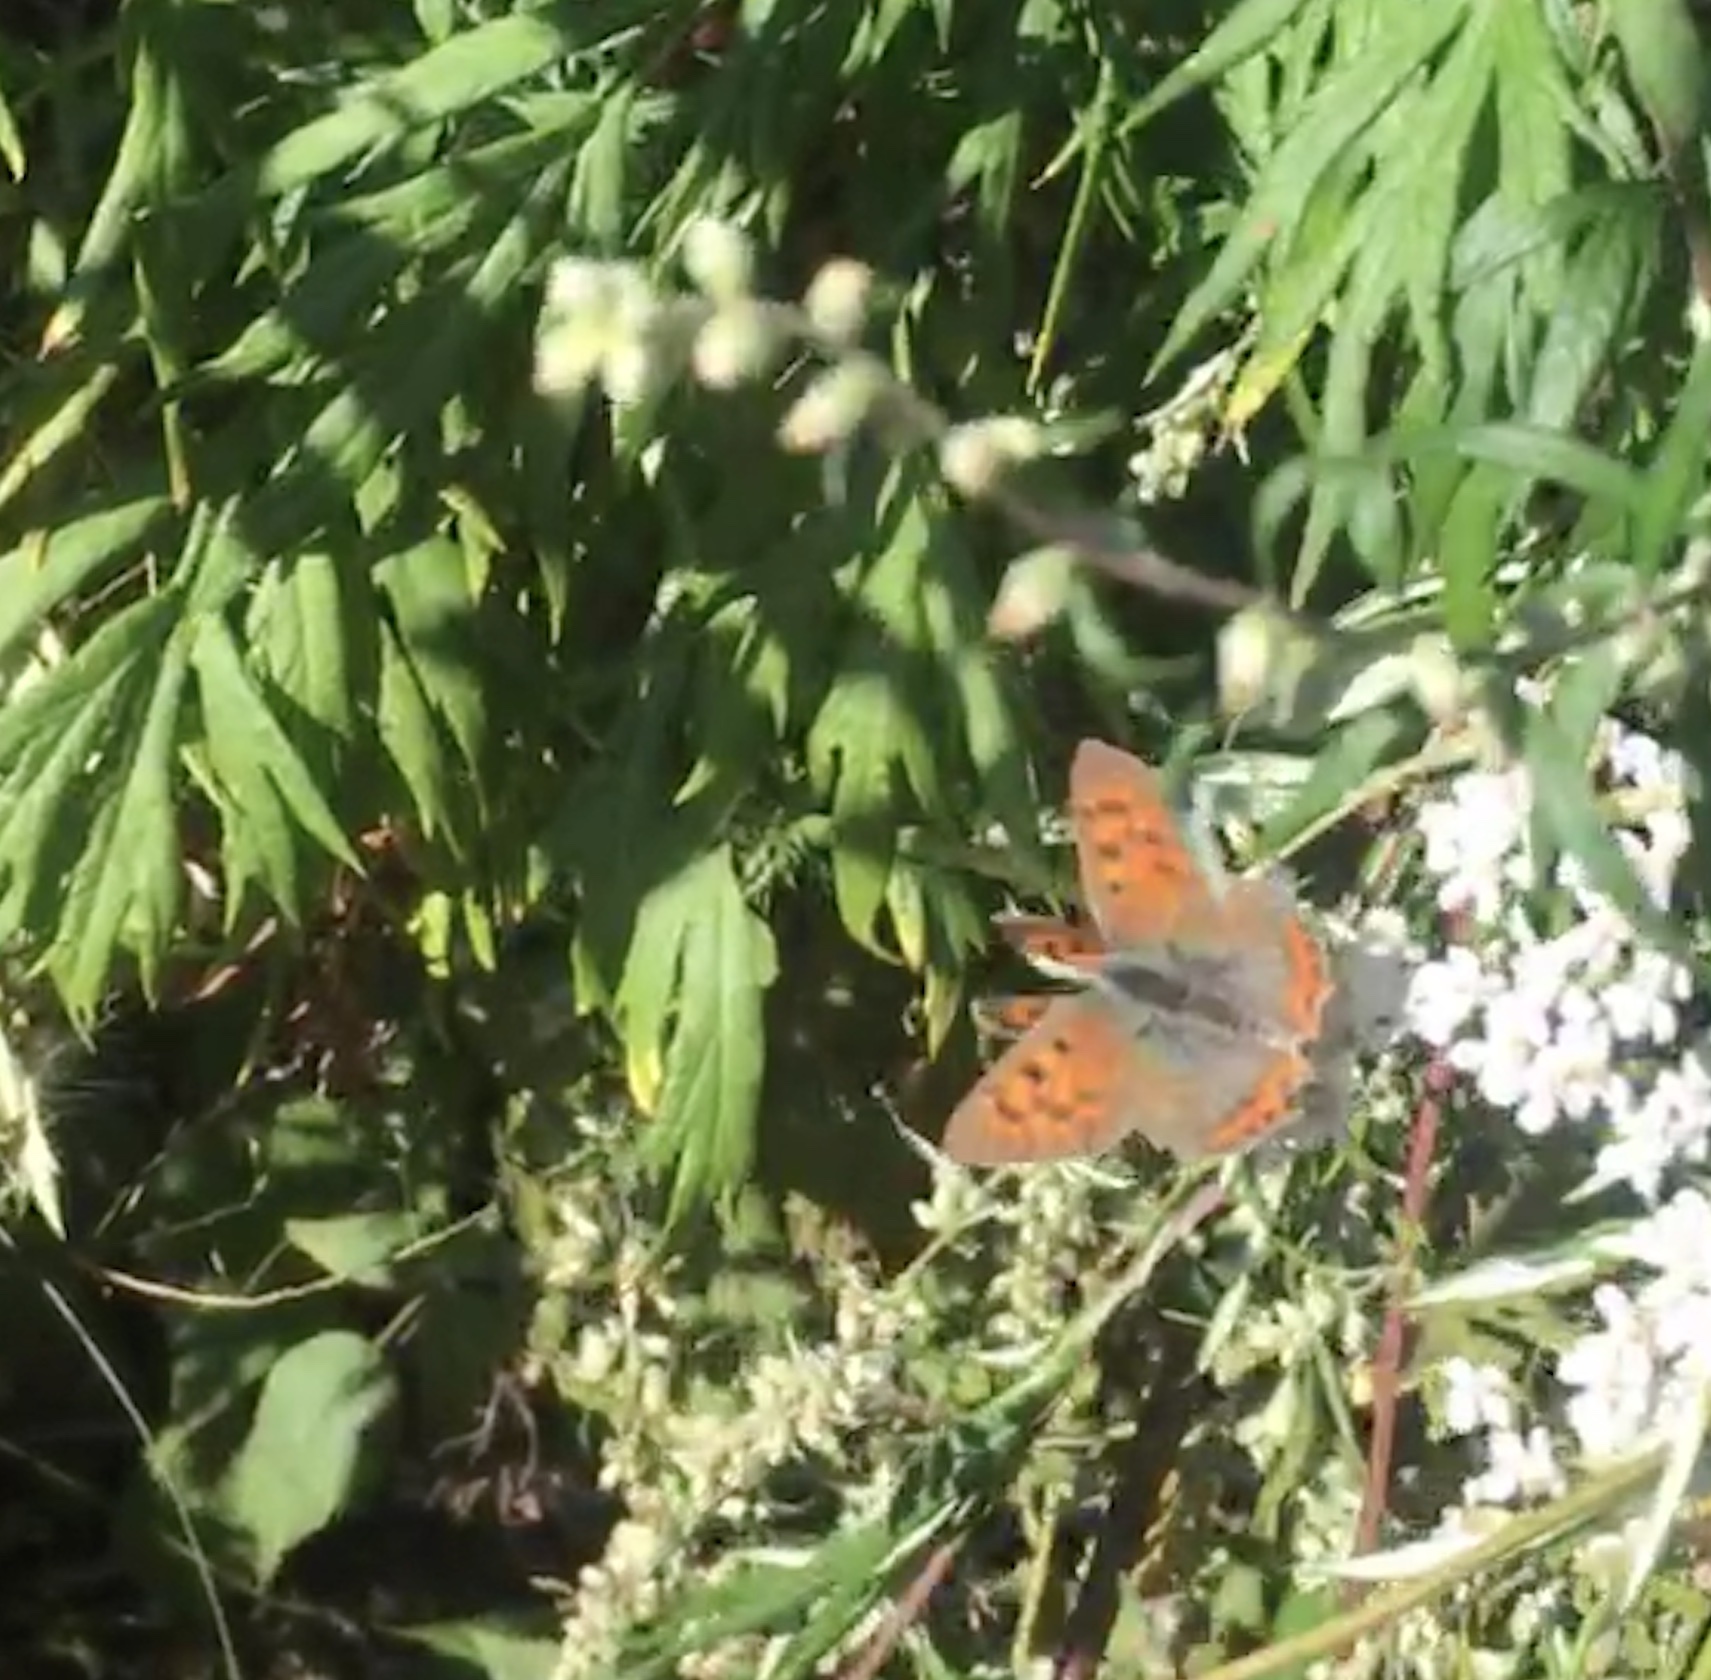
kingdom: Animalia
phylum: Arthropoda
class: Insecta
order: Lepidoptera
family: Lycaenidae
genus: Lycaena
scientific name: Lycaena phlaeas
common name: Small copper
